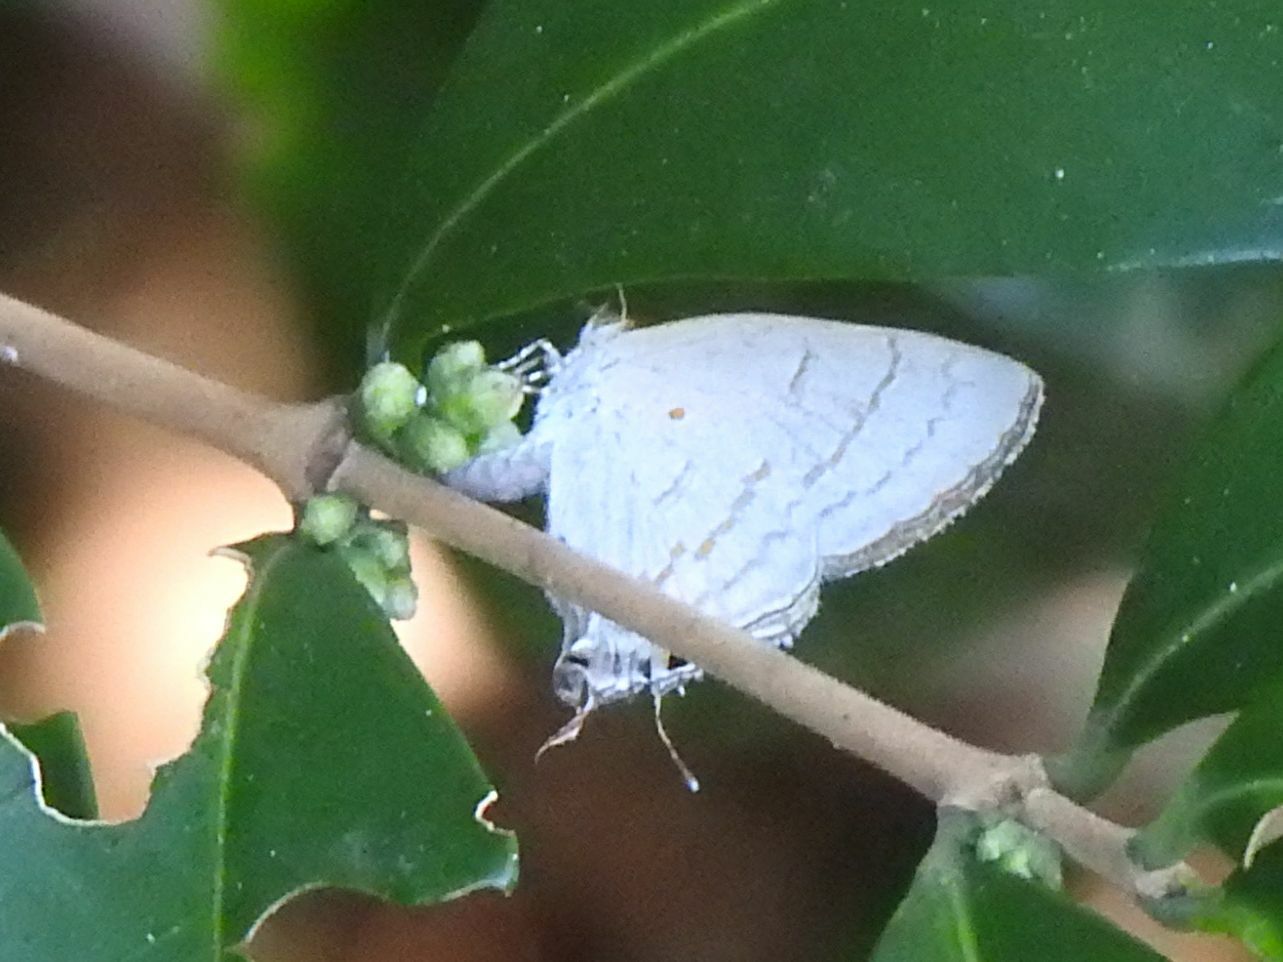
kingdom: Animalia
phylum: Arthropoda
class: Insecta
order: Lepidoptera
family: Lycaenidae
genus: Hypolycaena
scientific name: Hypolycaena philippus
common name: Common hairstreak
